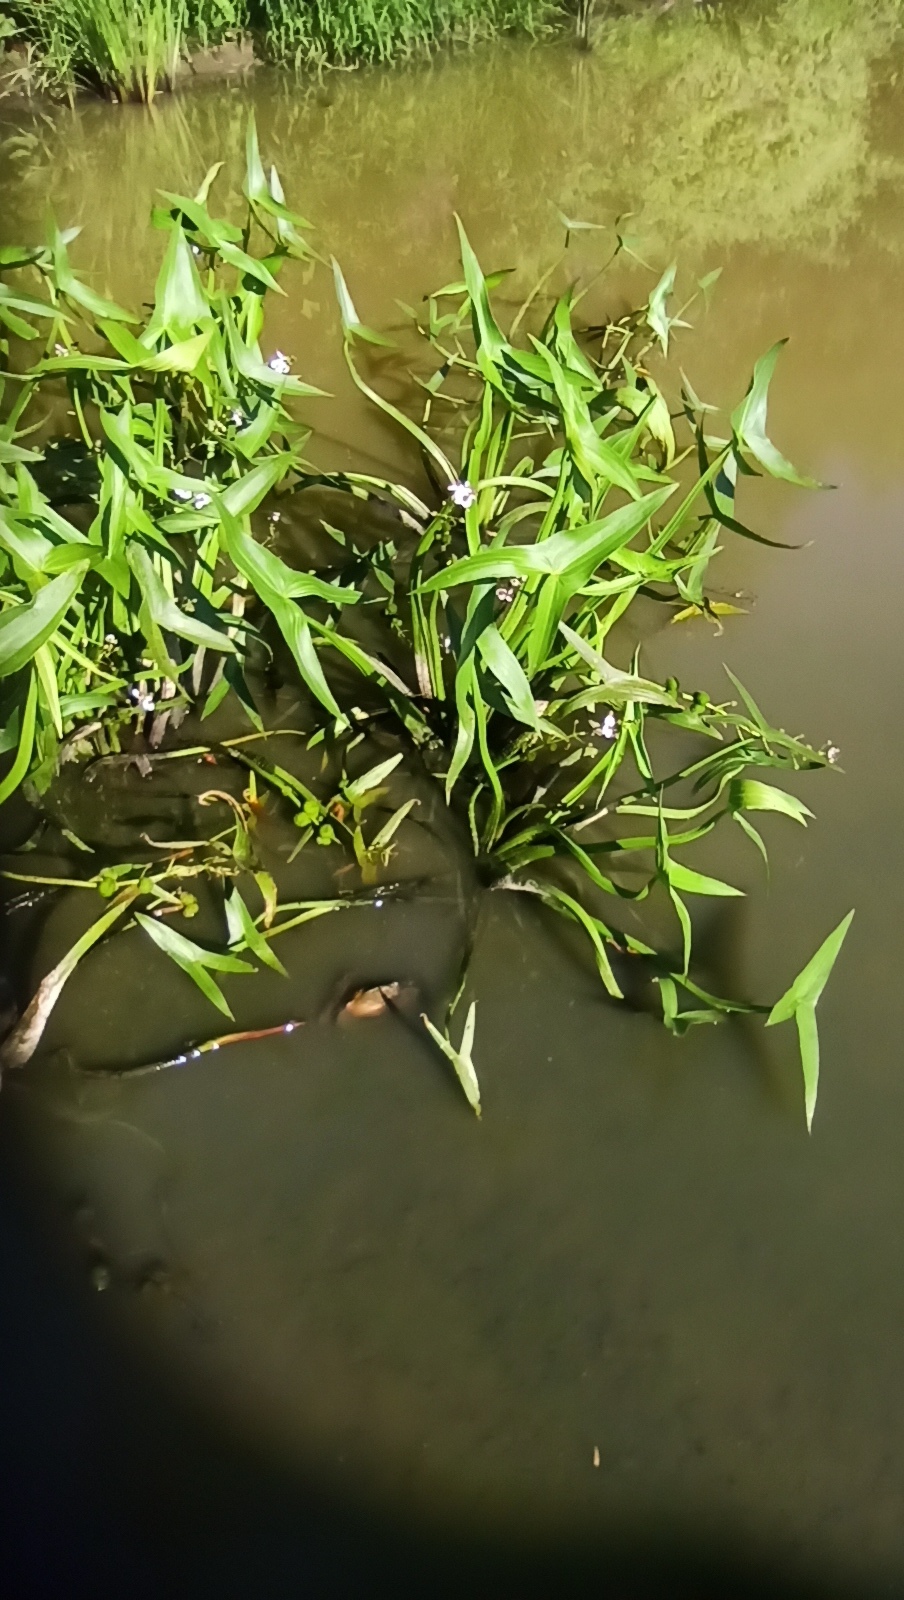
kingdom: Plantae
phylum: Tracheophyta
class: Liliopsida
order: Alismatales
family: Alismataceae
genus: Sagittaria
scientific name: Sagittaria sagittifolia
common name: Arrowhead
